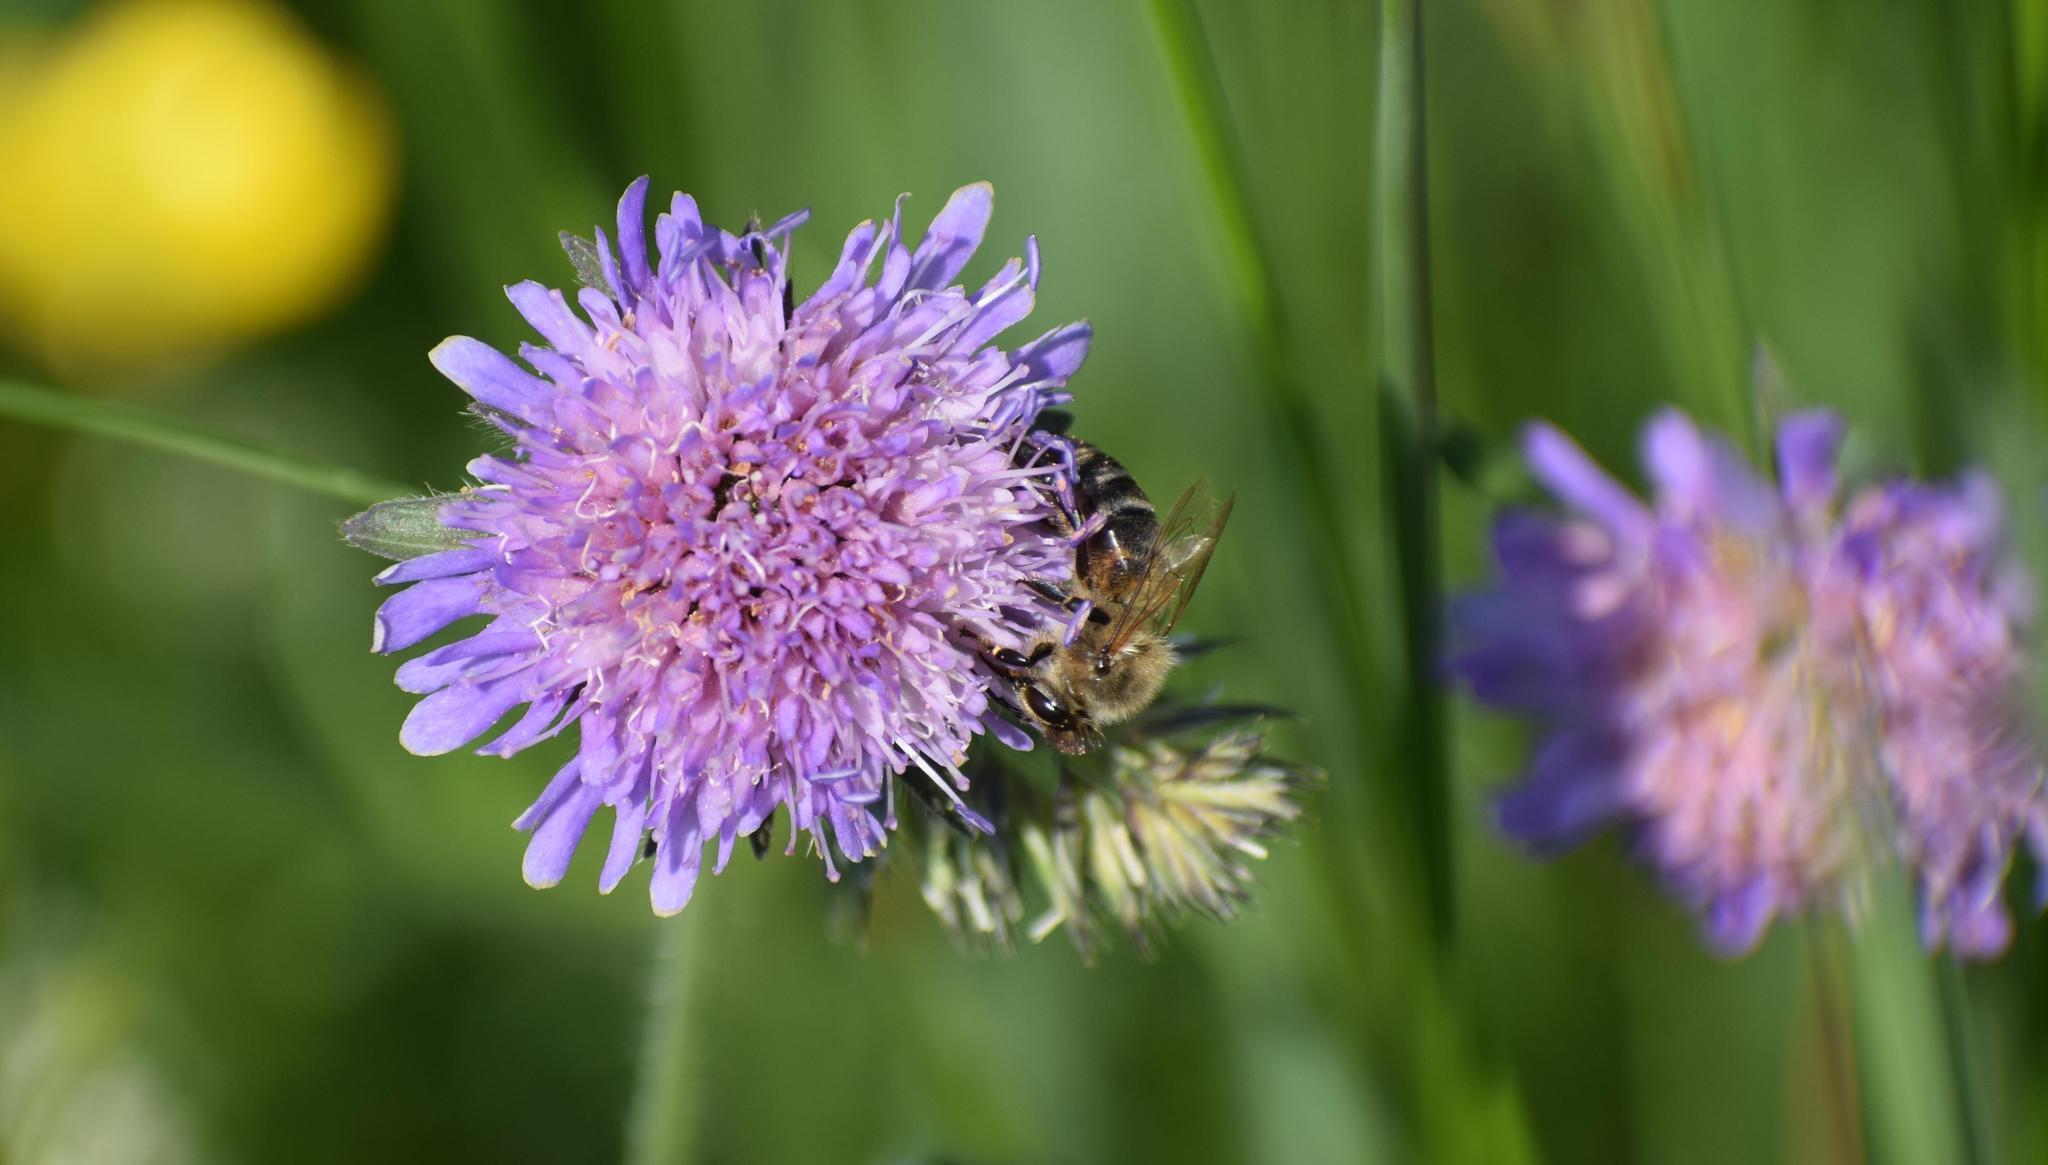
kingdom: Animalia
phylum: Arthropoda
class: Insecta
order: Hymenoptera
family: Apidae
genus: Apis
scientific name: Apis mellifera
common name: Honey bee
